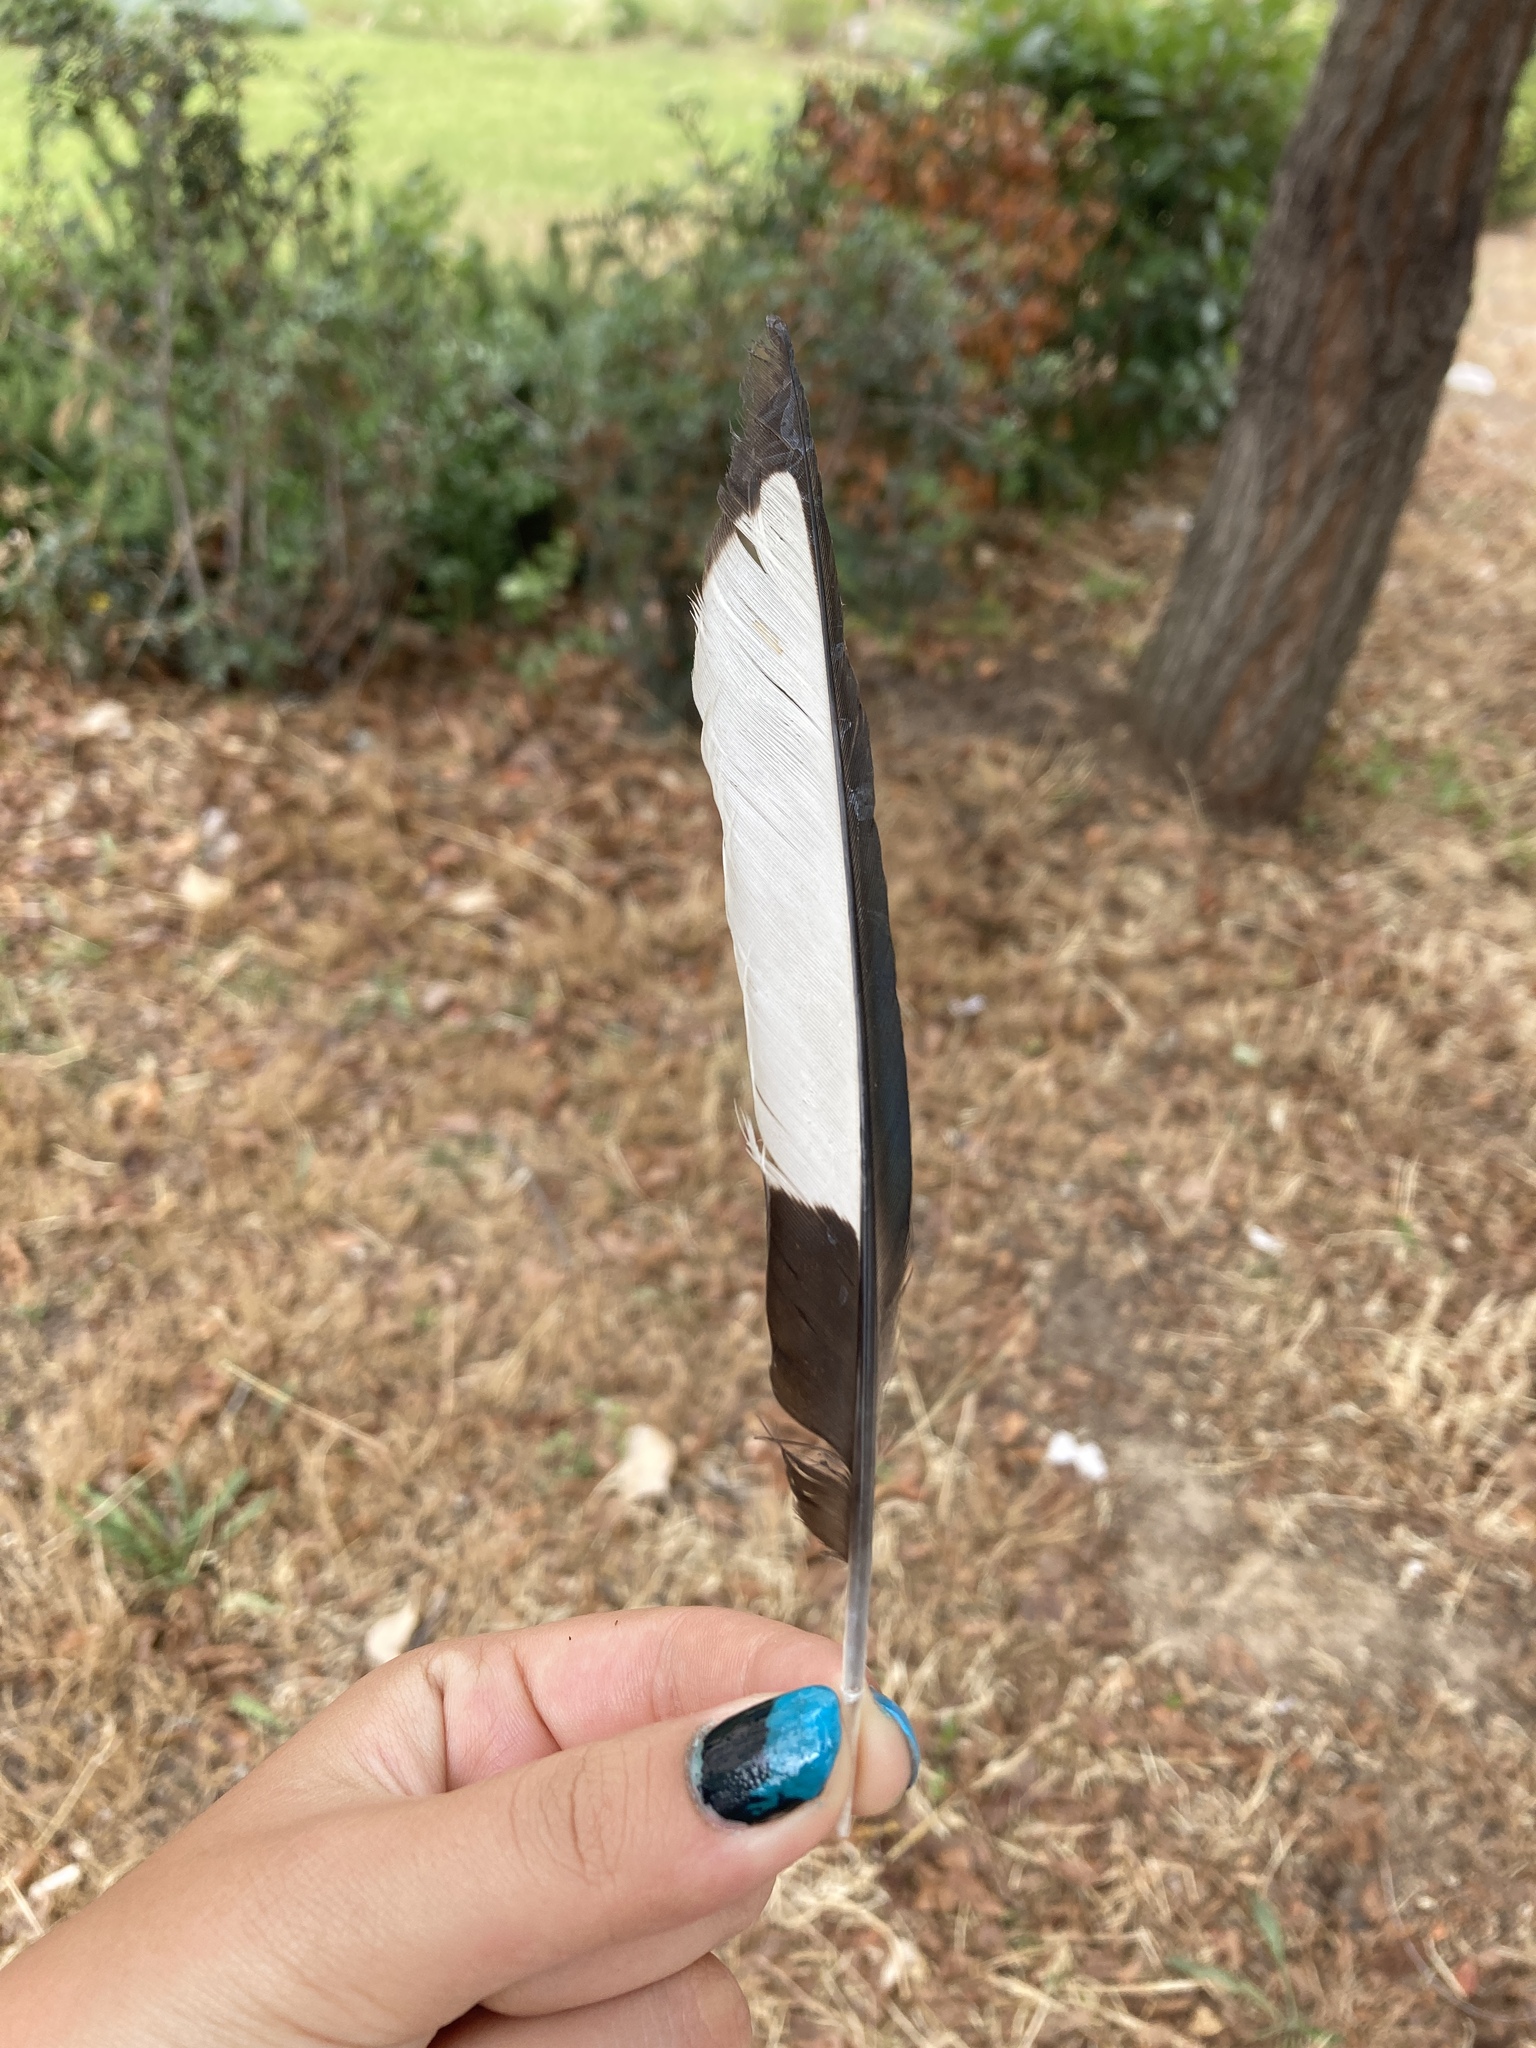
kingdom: Animalia
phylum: Chordata
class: Aves
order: Passeriformes
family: Corvidae
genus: Pica
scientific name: Pica pica
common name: Eurasian magpie
